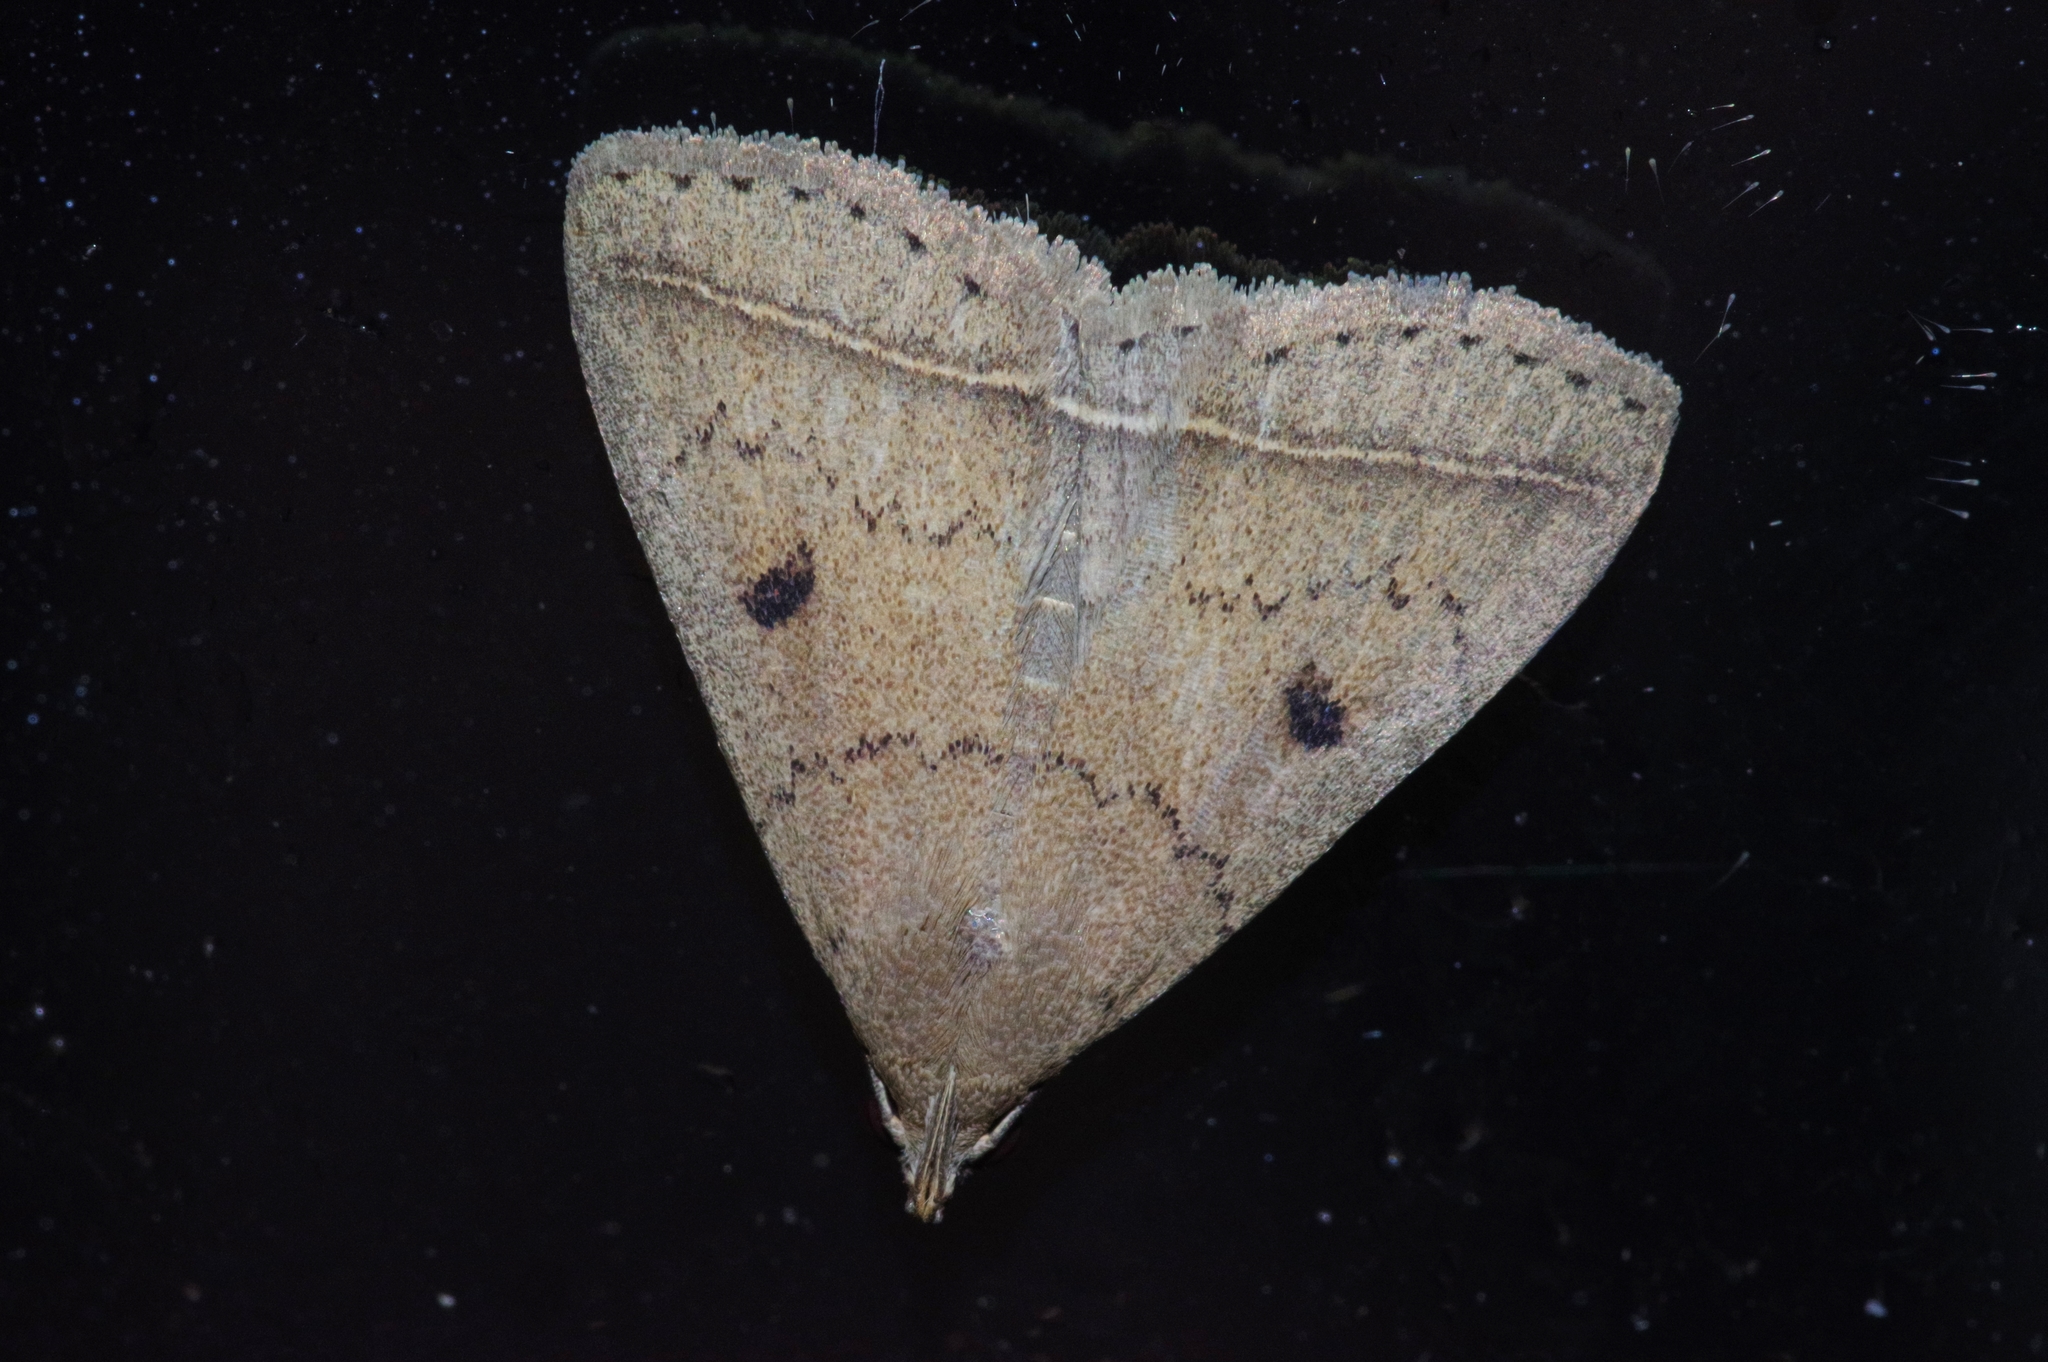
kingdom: Animalia
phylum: Arthropoda
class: Insecta
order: Lepidoptera
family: Erebidae
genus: Simplicia
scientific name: Simplicia discosticta
